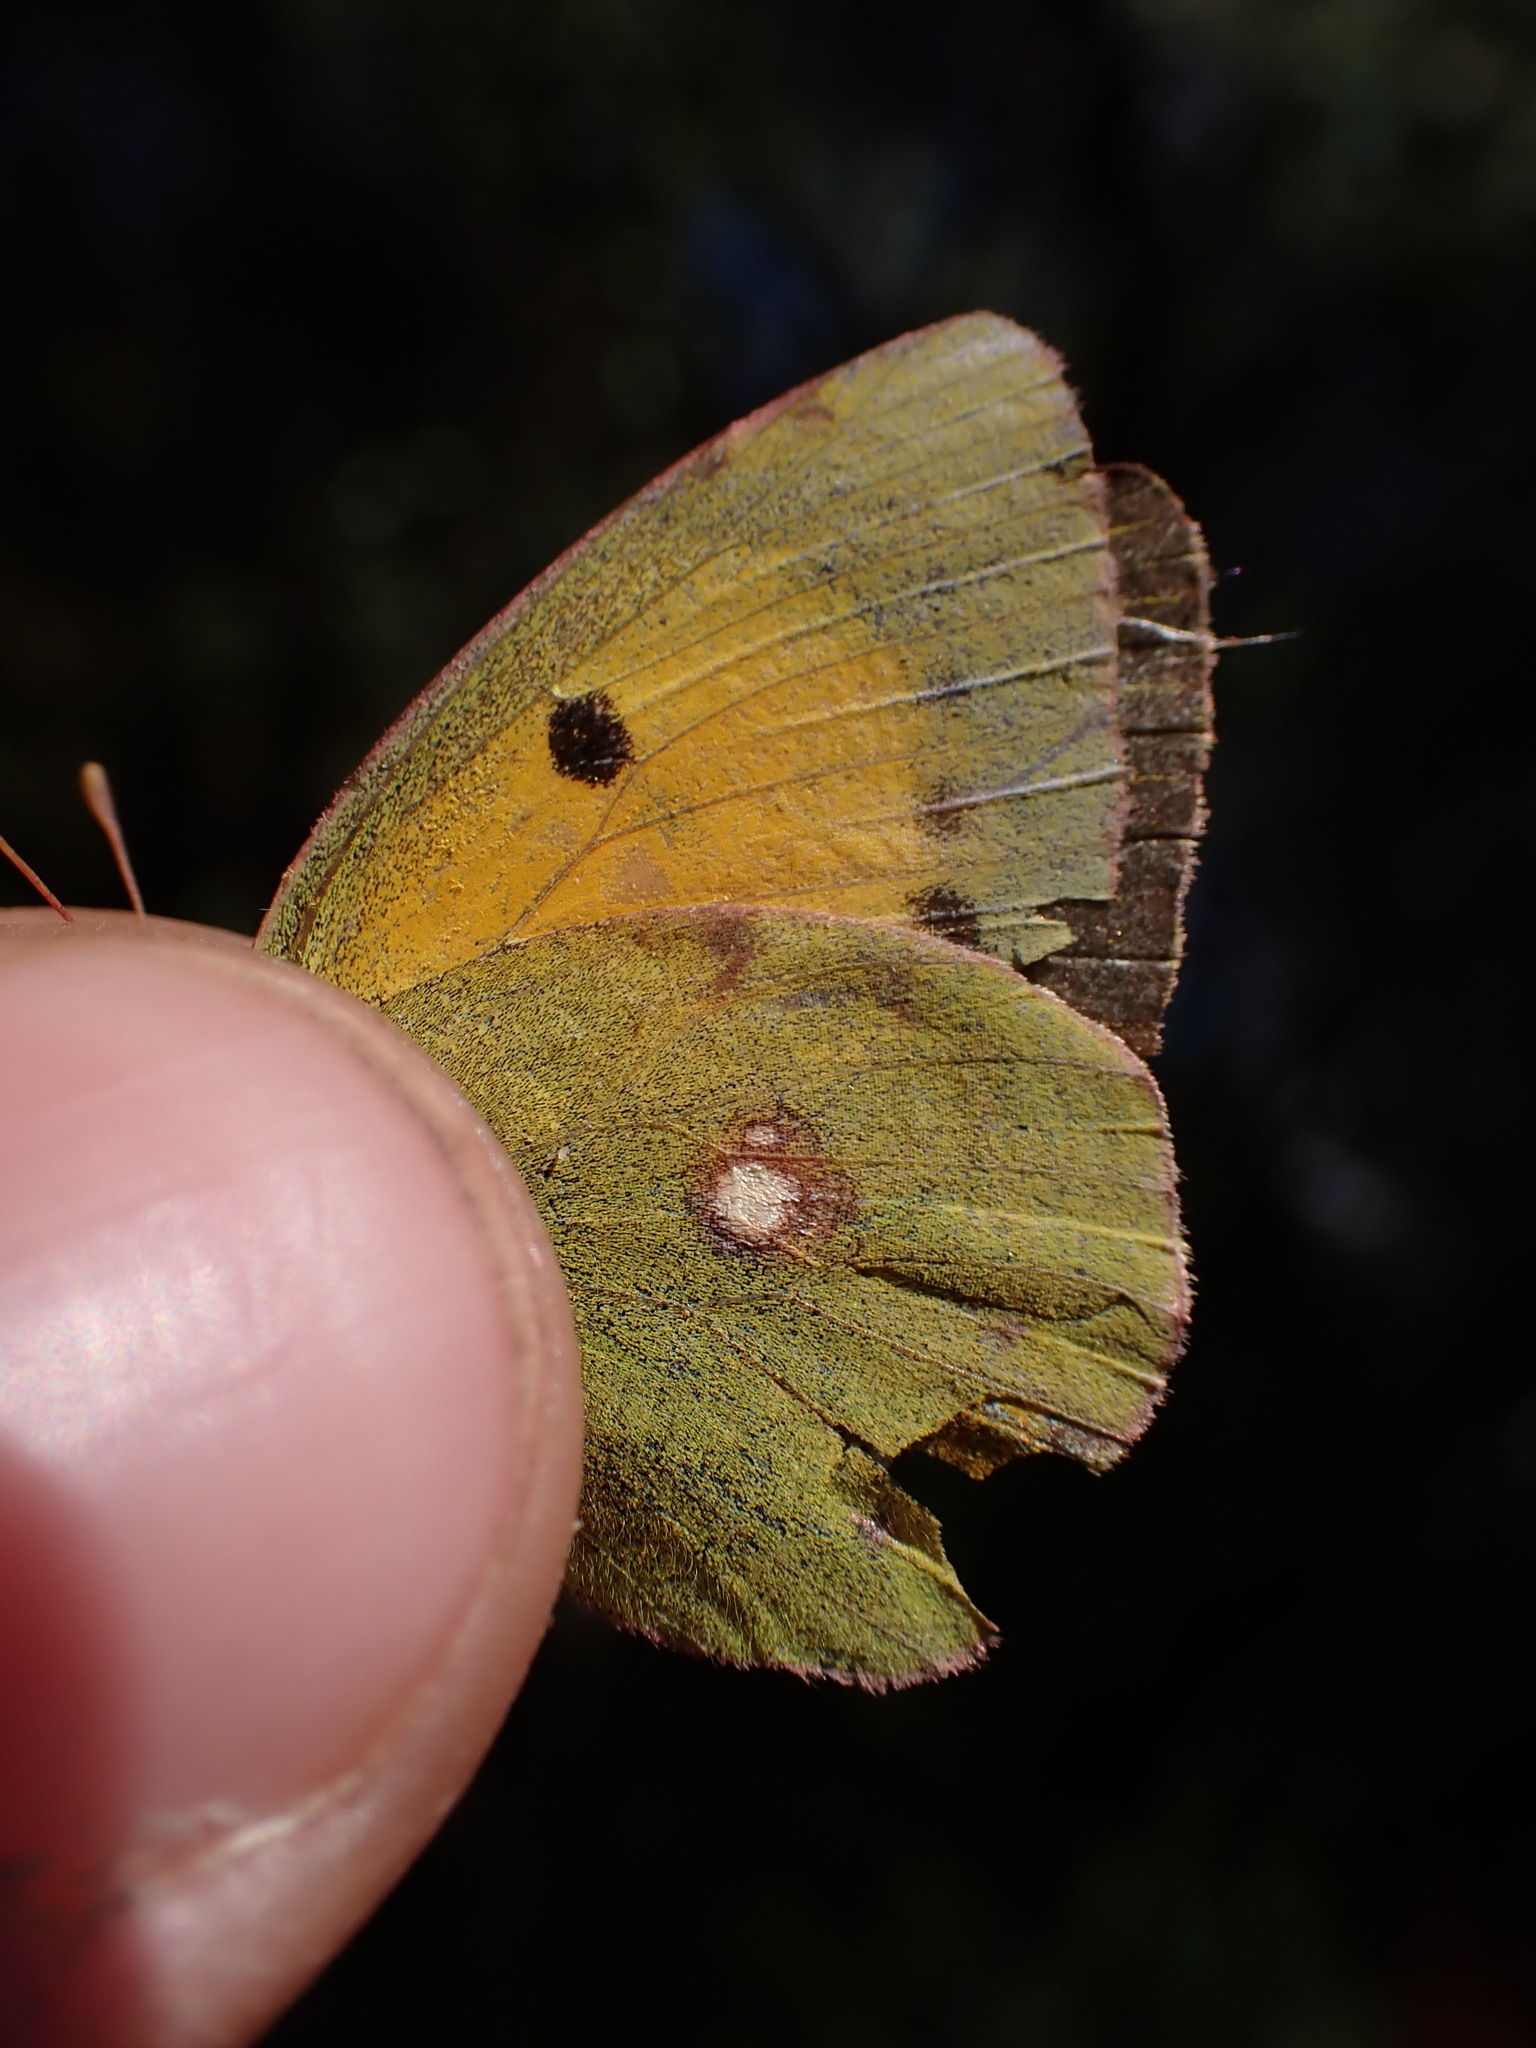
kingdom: Animalia
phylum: Arthropoda
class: Insecta
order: Lepidoptera
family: Pieridae
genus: Colias
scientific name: Colias croceus
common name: Clouded yellow
